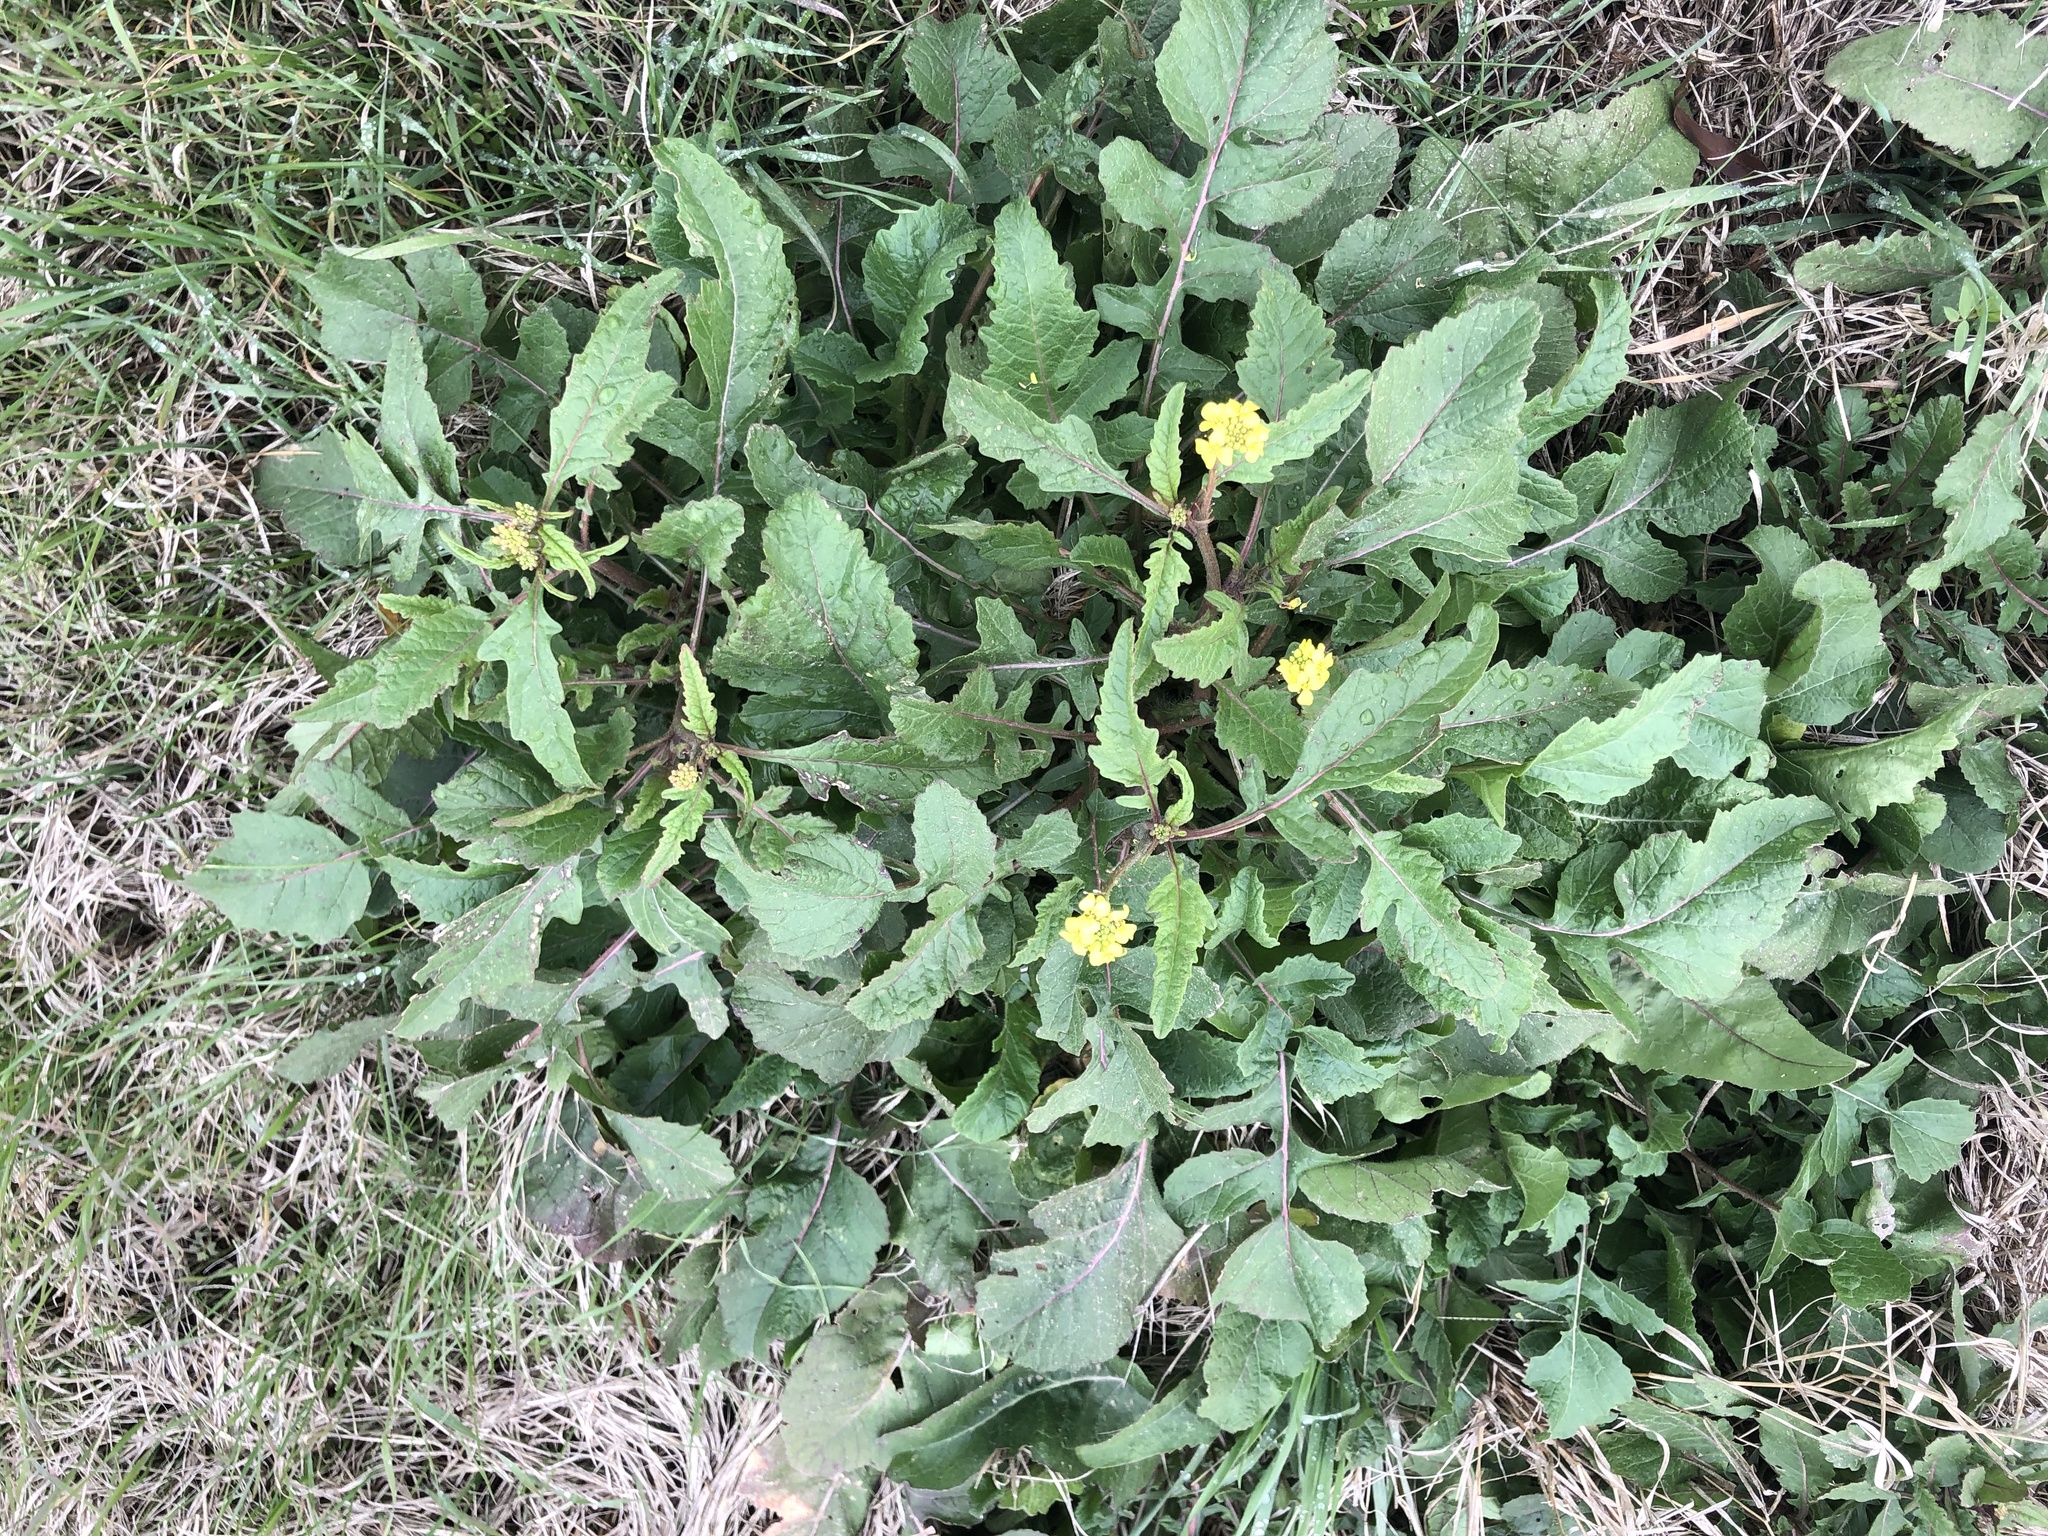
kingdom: Plantae
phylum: Tracheophyta
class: Magnoliopsida
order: Brassicales
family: Brassicaceae
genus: Rapistrum
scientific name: Rapistrum rugosum
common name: Annual bastardcabbage
